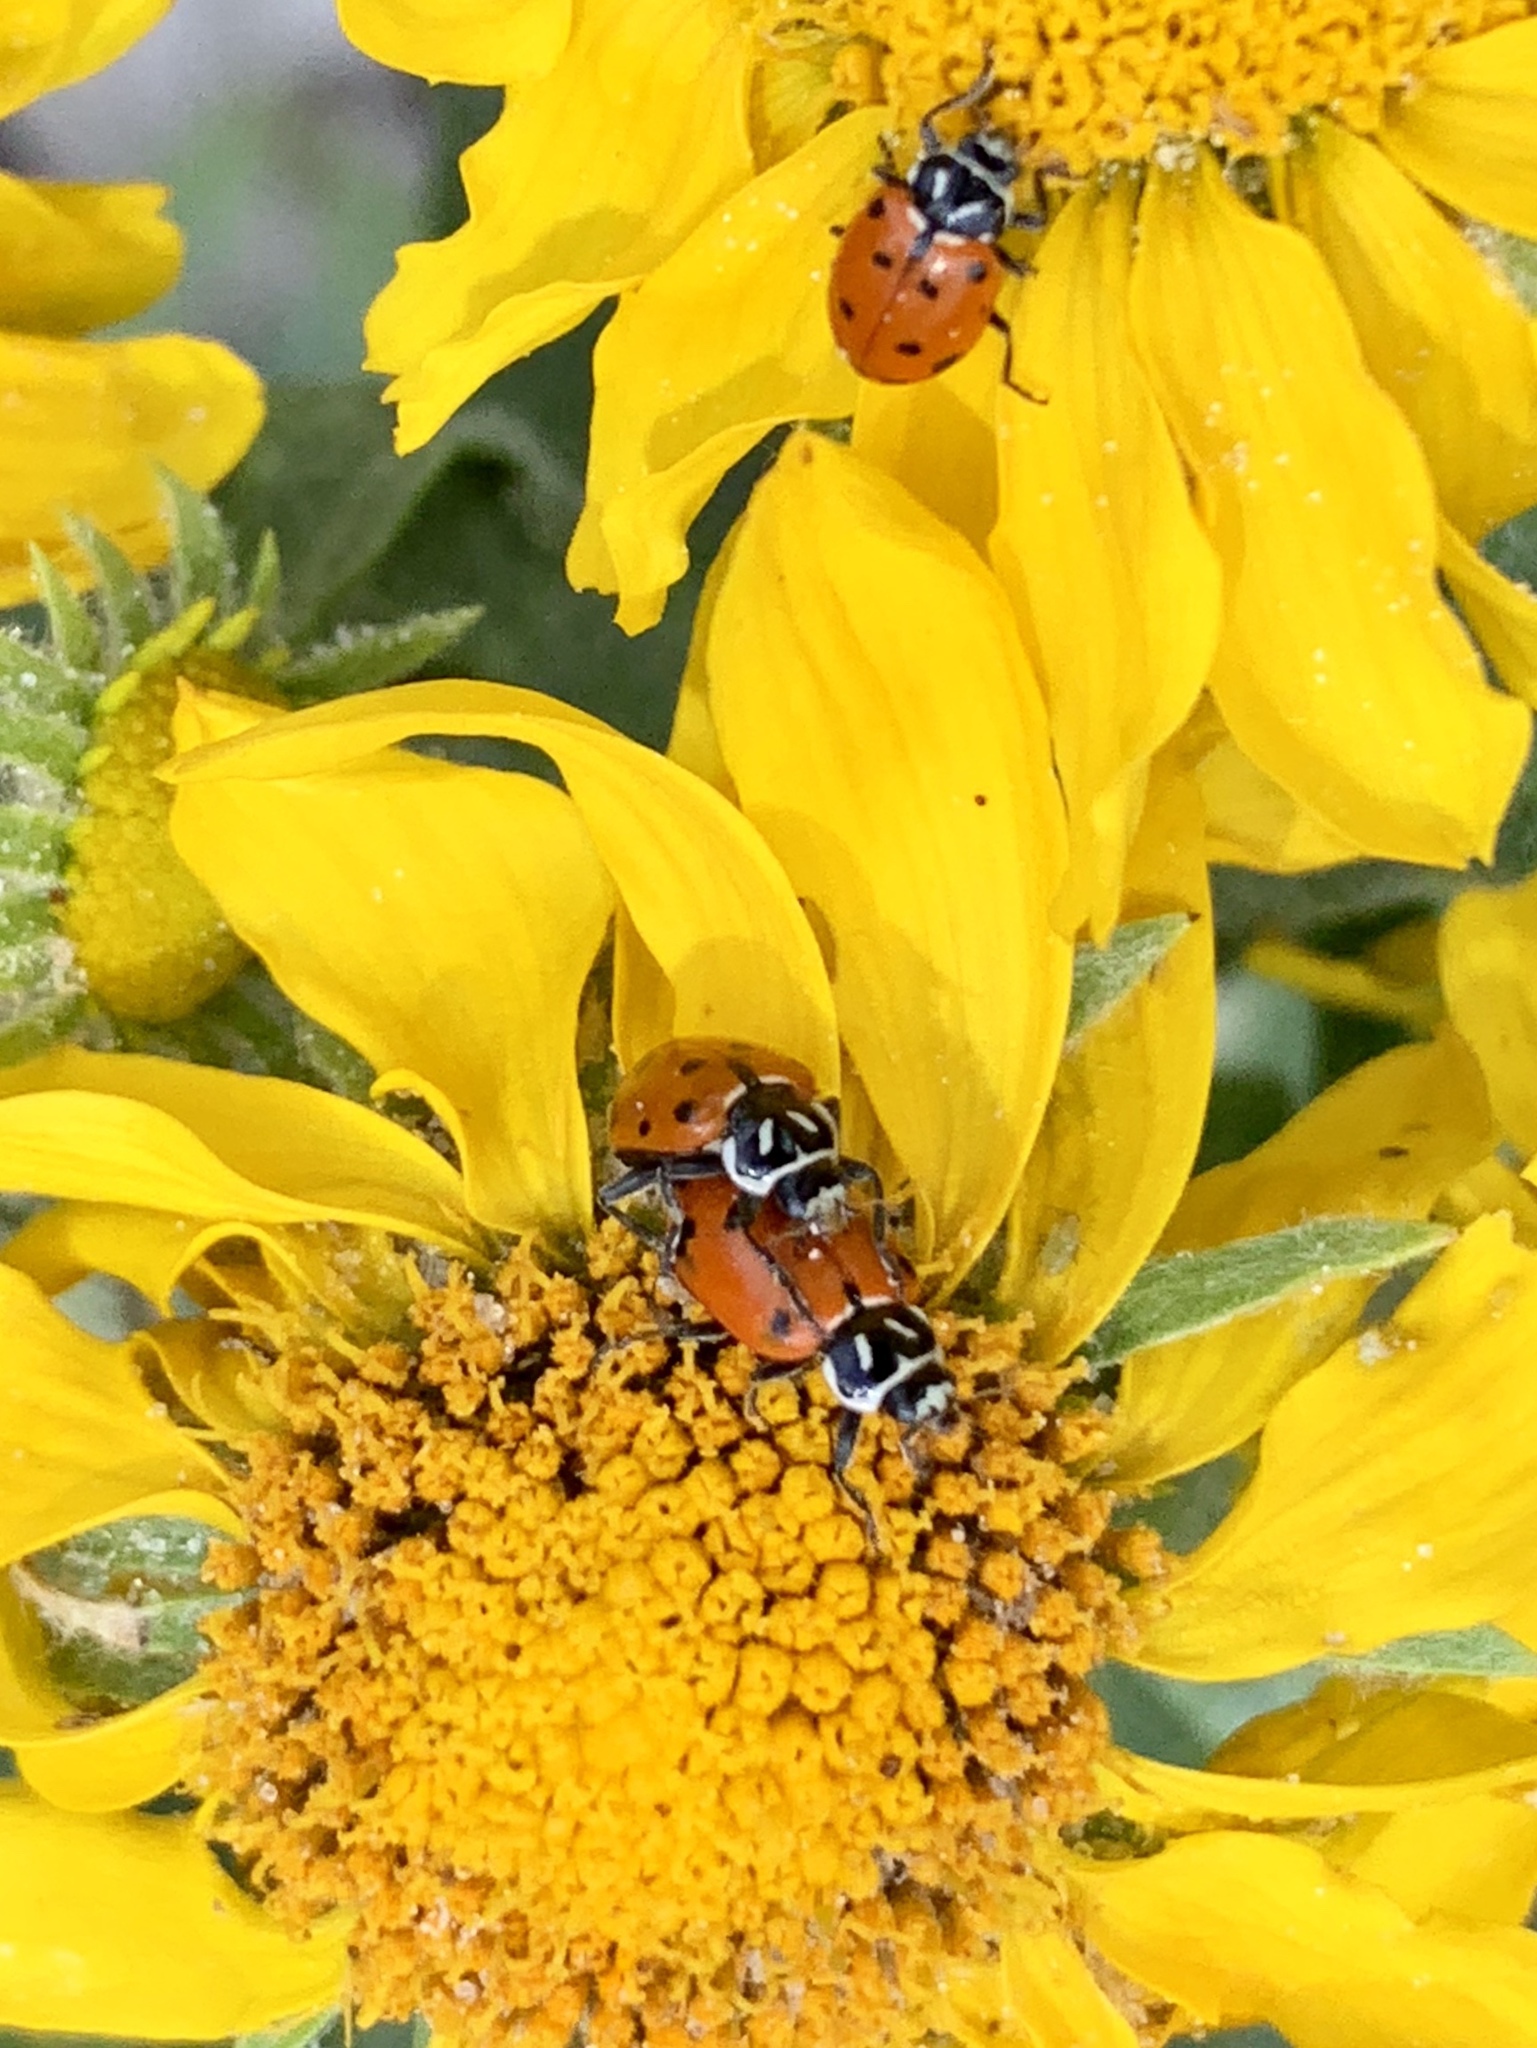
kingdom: Animalia
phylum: Arthropoda
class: Insecta
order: Coleoptera
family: Coccinellidae
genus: Hippodamia
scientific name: Hippodamia convergens
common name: Convergent lady beetle
